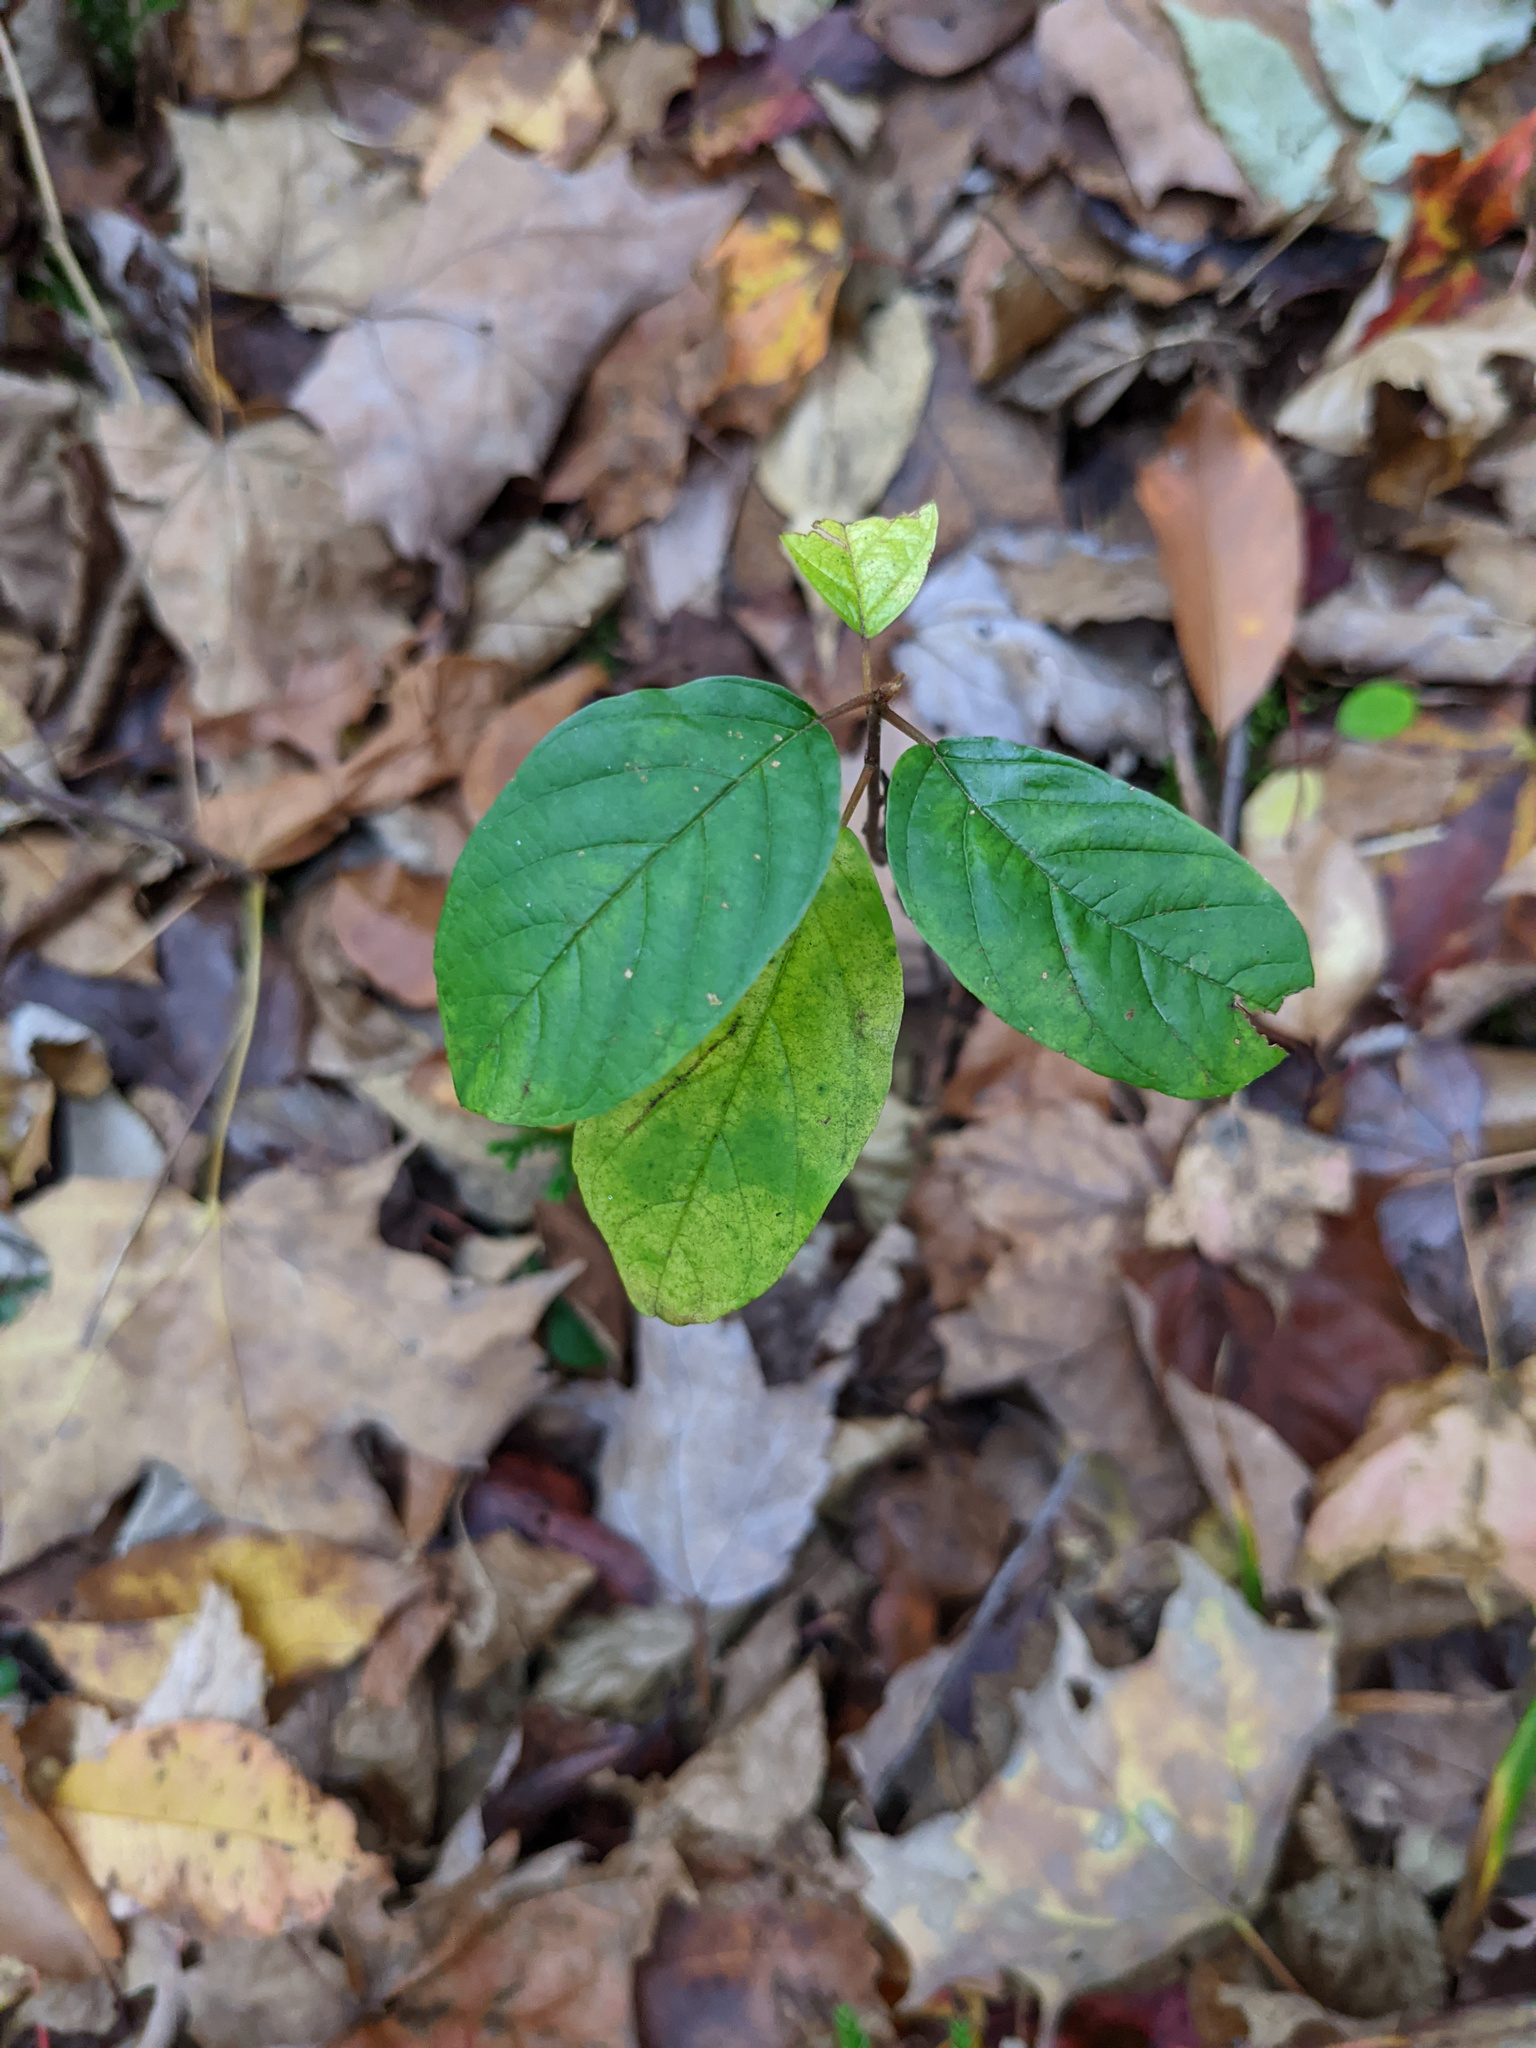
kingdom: Plantae
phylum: Tracheophyta
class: Magnoliopsida
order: Rosales
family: Rhamnaceae
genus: Frangula
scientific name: Frangula alnus
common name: Alder buckthorn
